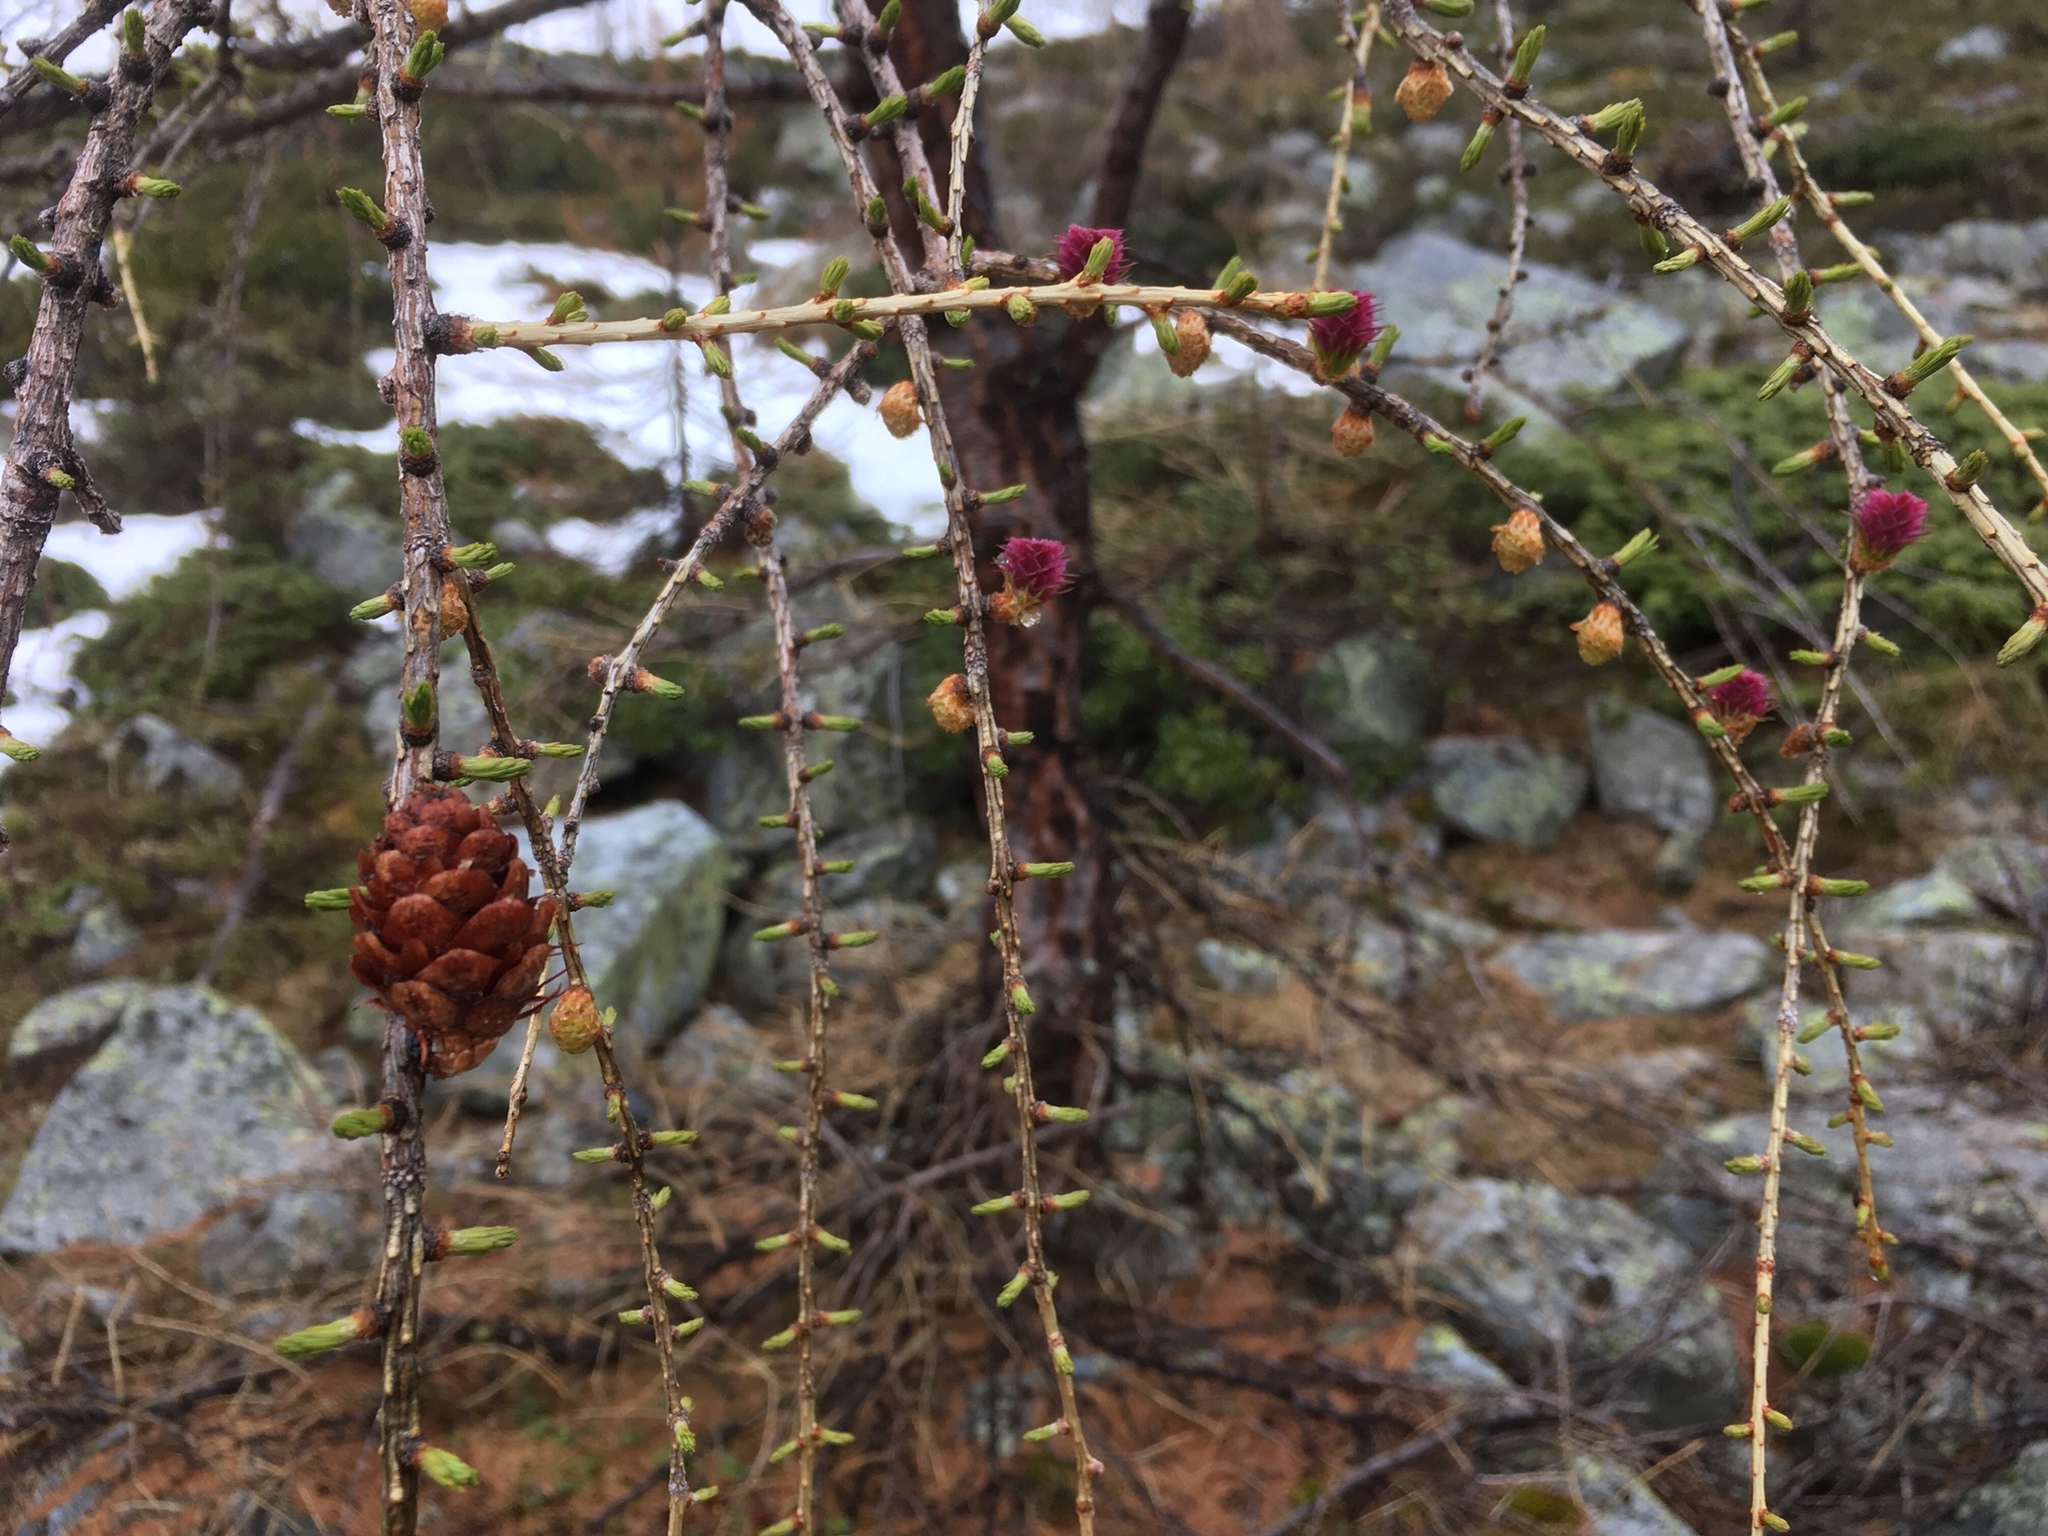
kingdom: Plantae
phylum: Tracheophyta
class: Pinopsida
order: Pinales
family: Pinaceae
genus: Larix
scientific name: Larix decidua
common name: European larch
